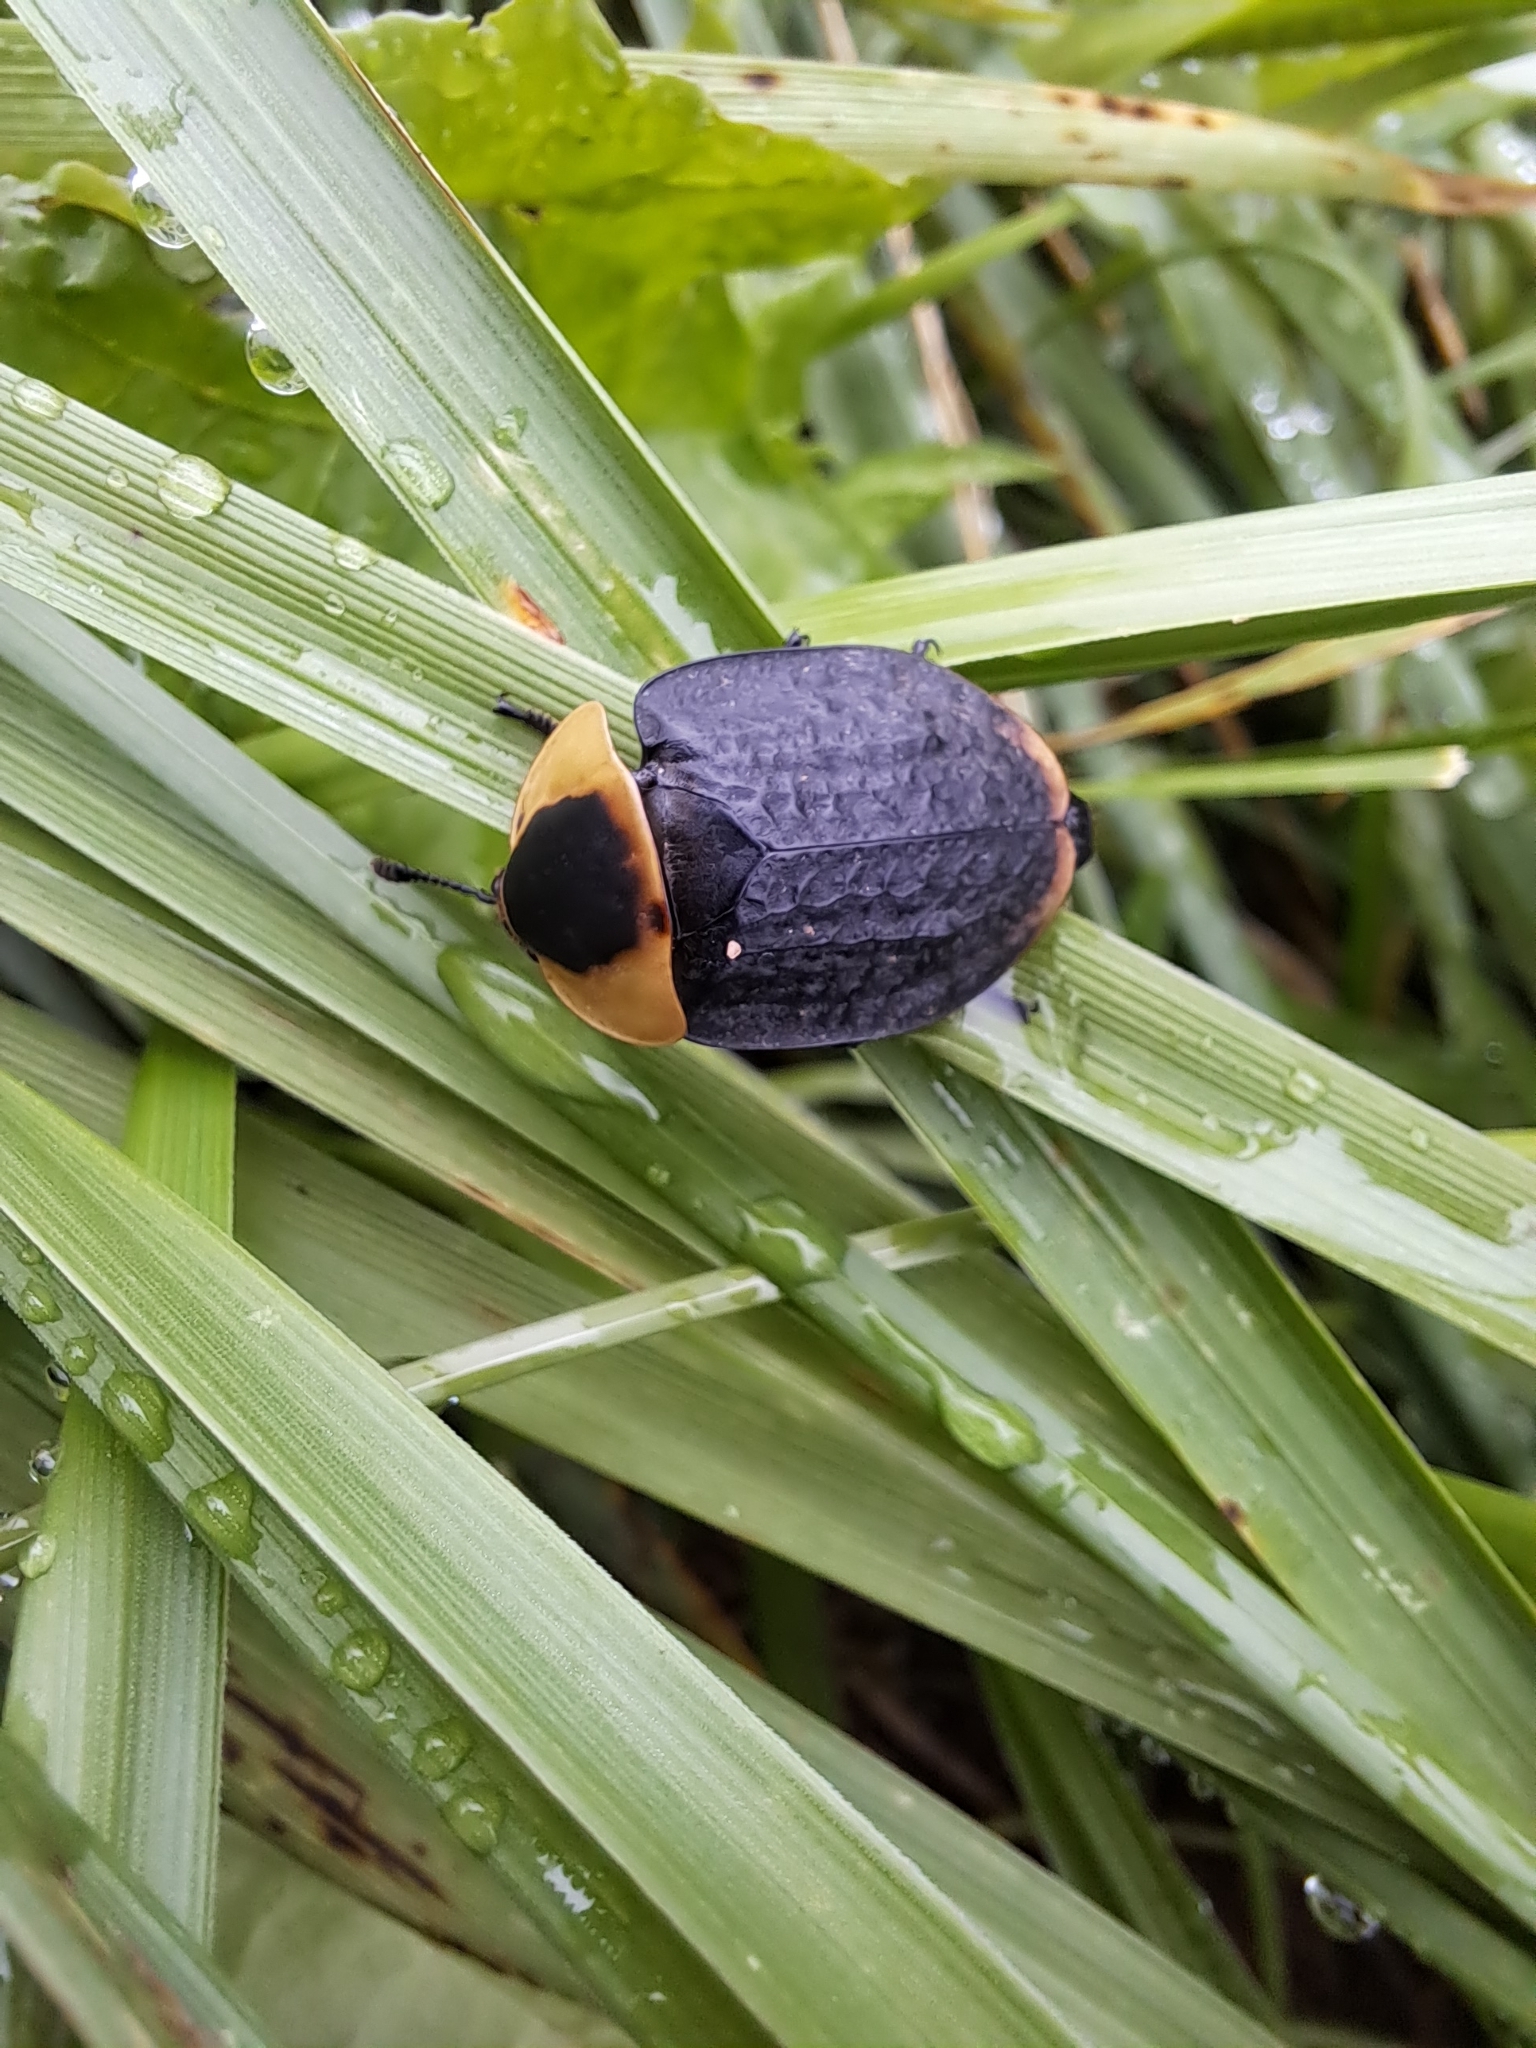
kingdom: Animalia
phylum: Arthropoda
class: Insecta
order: Coleoptera
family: Staphylinidae
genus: Necrophila
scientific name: Necrophila americana
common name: American carrion beetle
